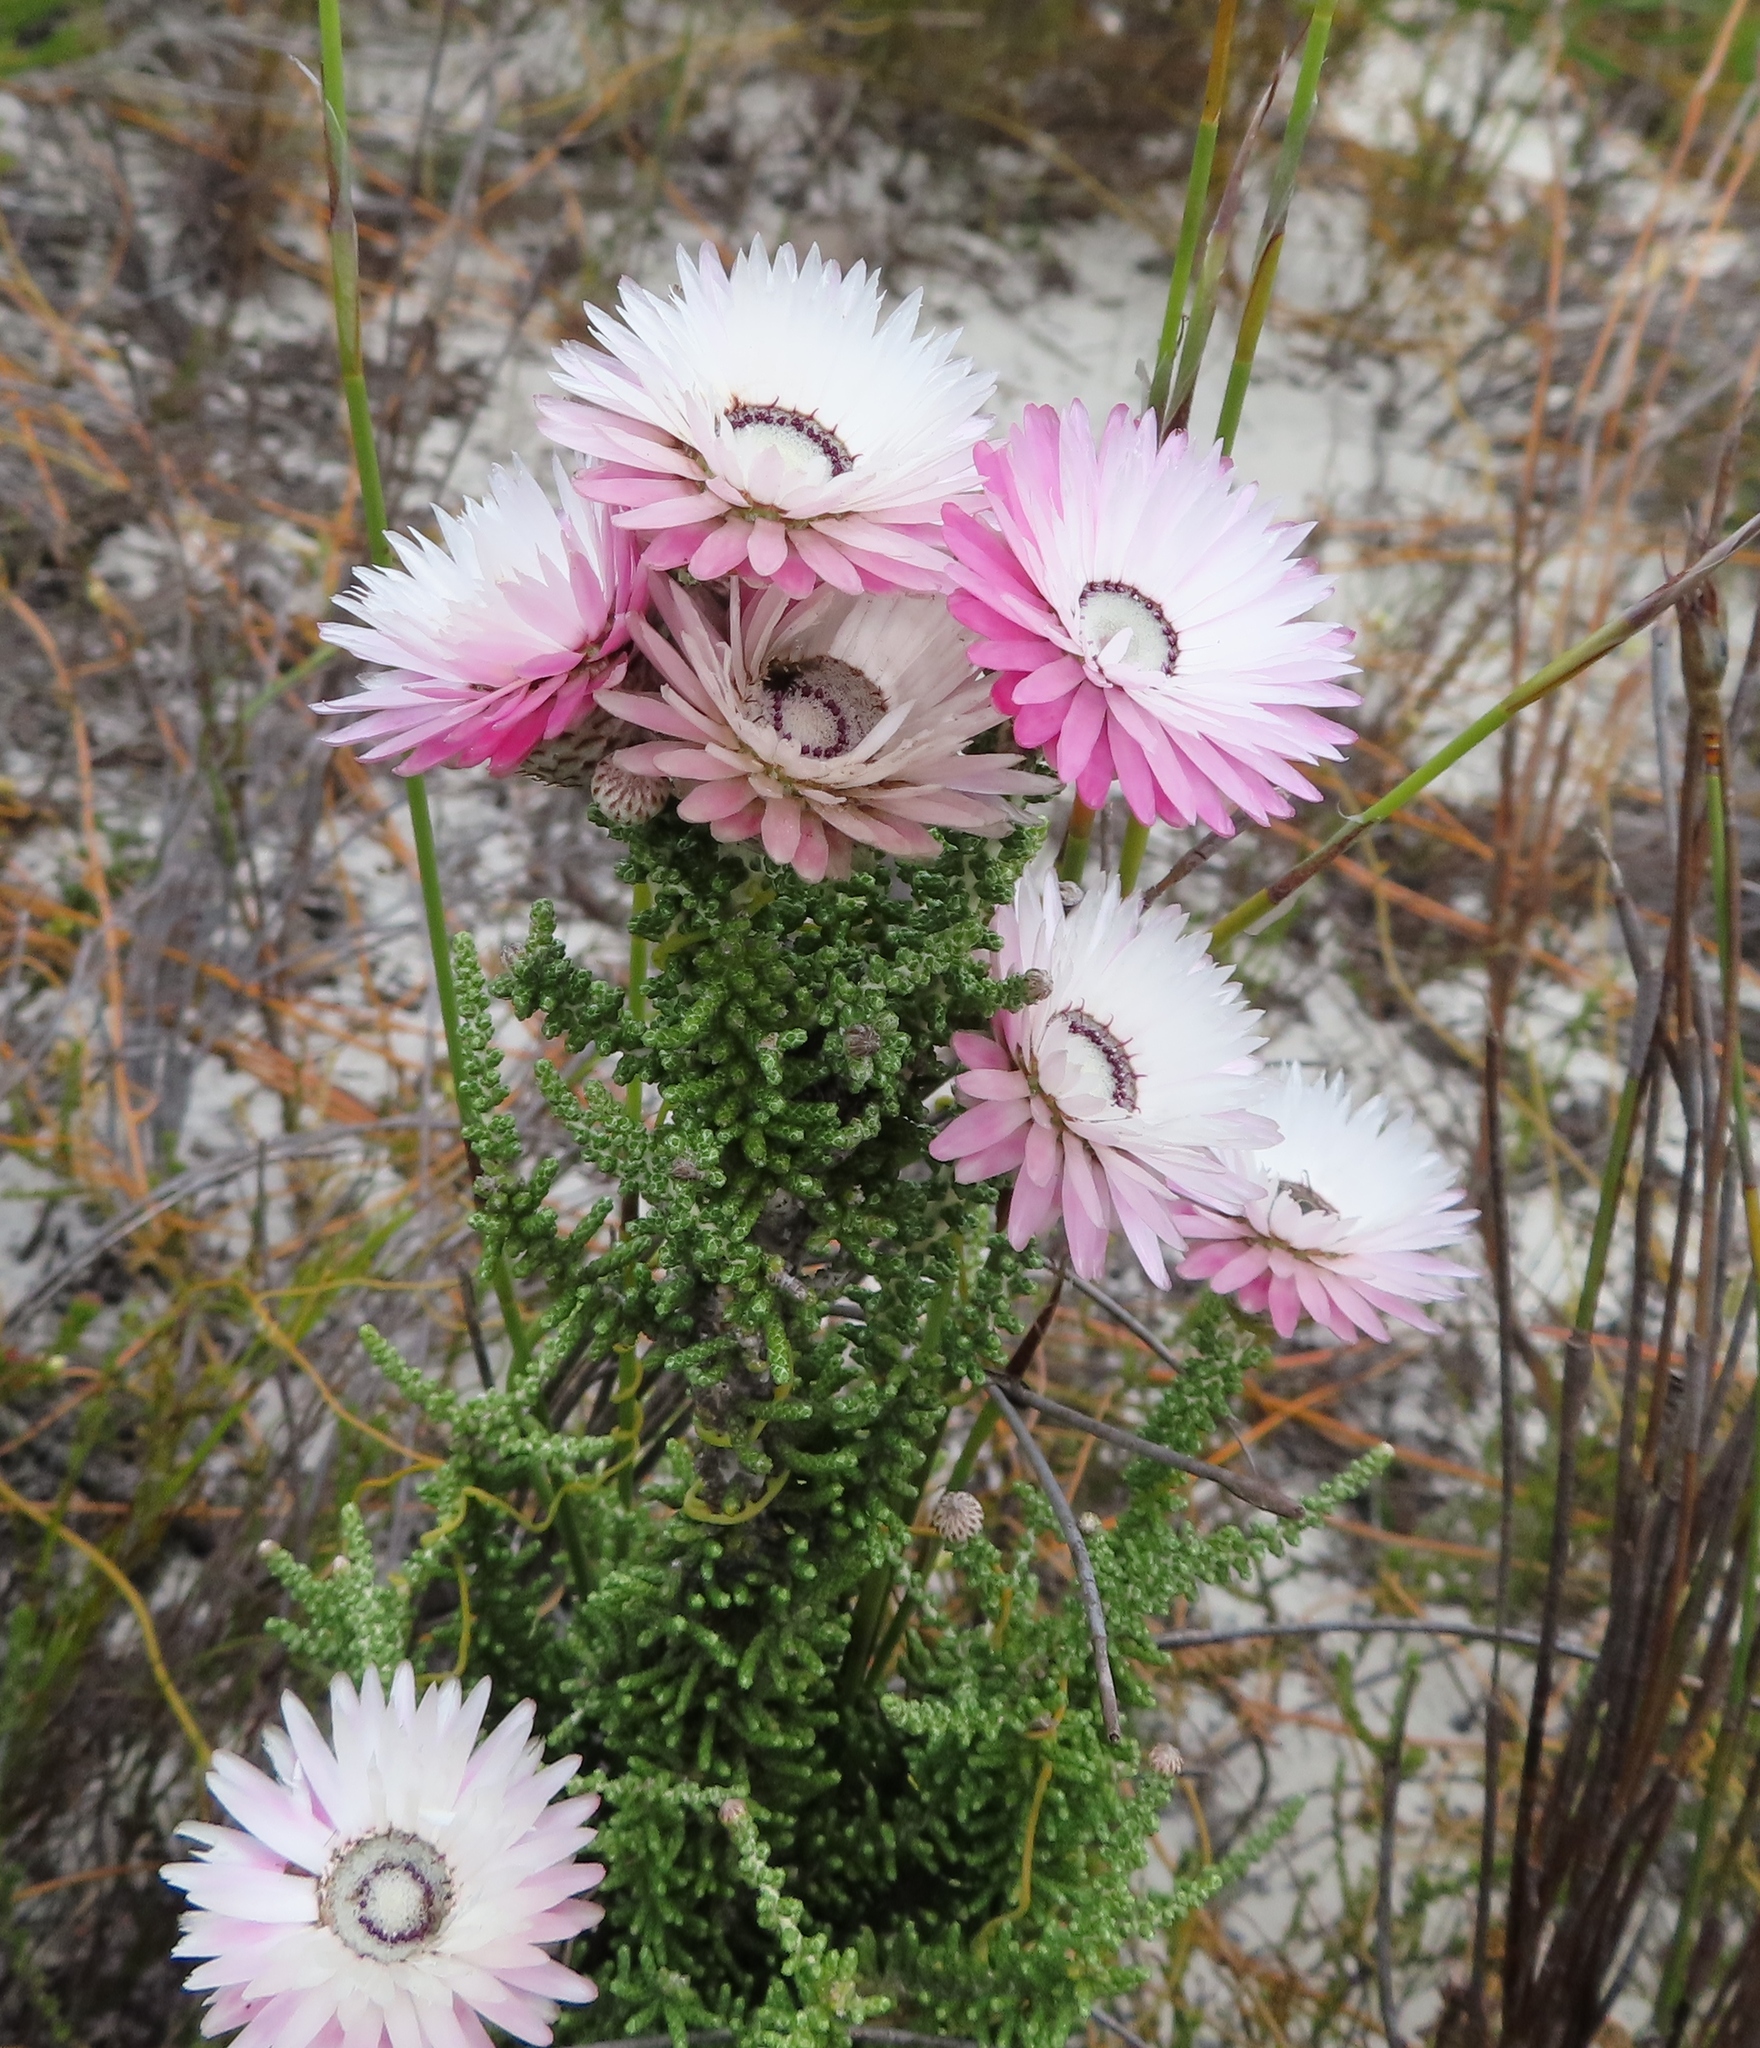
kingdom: Plantae
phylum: Tracheophyta
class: Magnoliopsida
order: Asterales
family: Asteraceae
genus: Phaenocoma
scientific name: Phaenocoma prolifera
